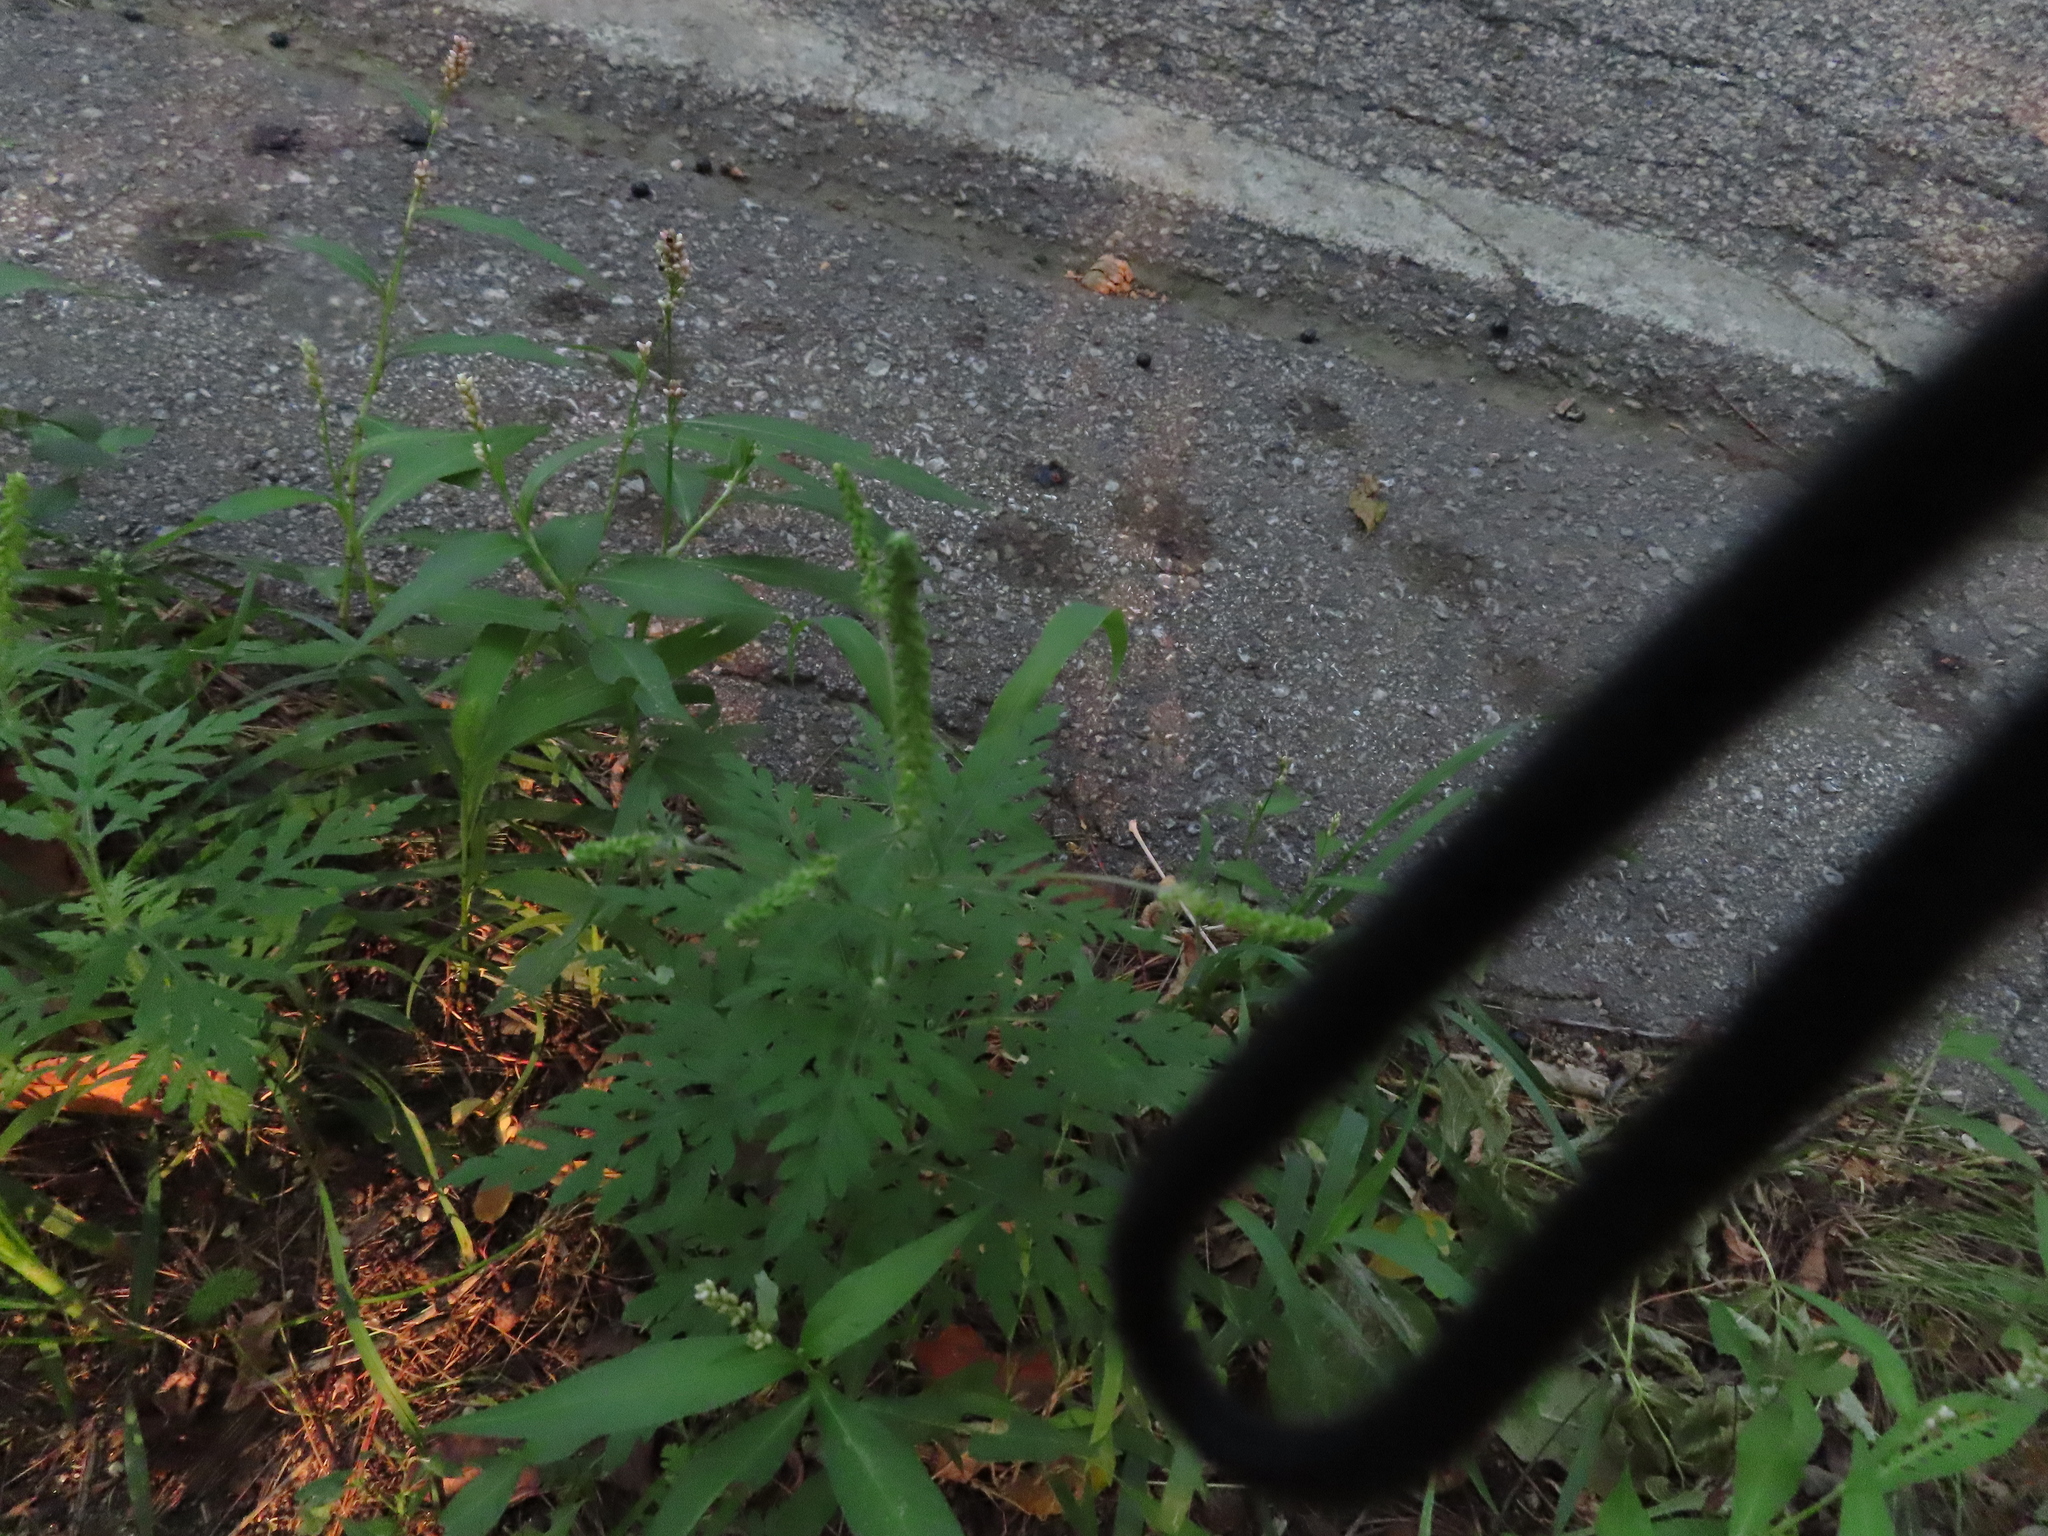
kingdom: Plantae
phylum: Tracheophyta
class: Magnoliopsida
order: Asterales
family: Asteraceae
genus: Ambrosia
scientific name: Ambrosia artemisiifolia
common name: Annual ragweed
